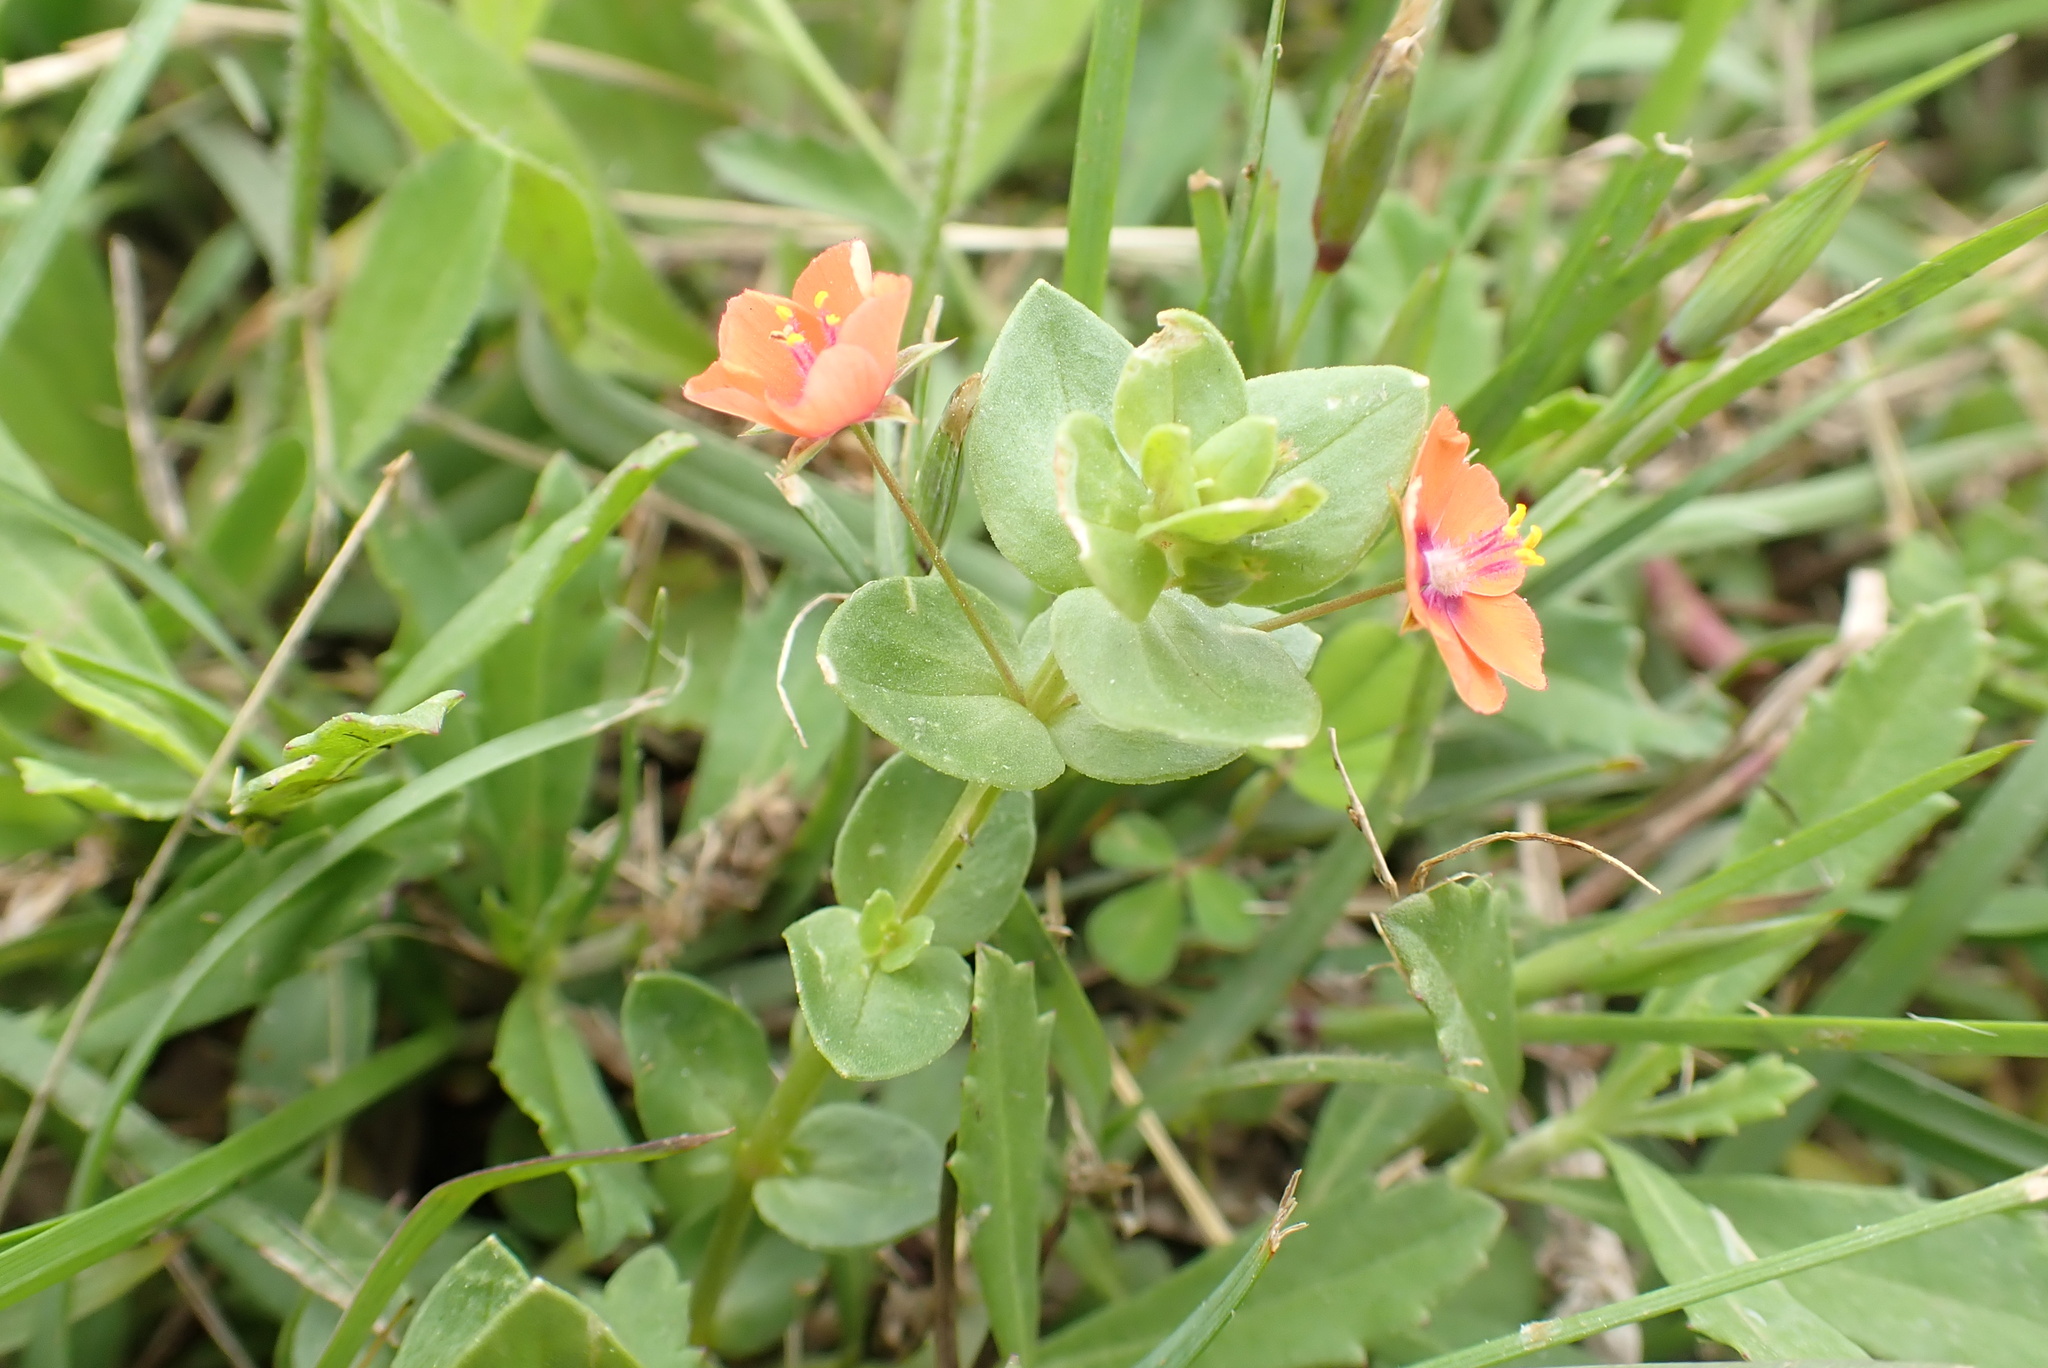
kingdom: Plantae
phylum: Tracheophyta
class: Magnoliopsida
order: Ericales
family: Primulaceae
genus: Lysimachia
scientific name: Lysimachia arvensis
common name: Scarlet pimpernel
